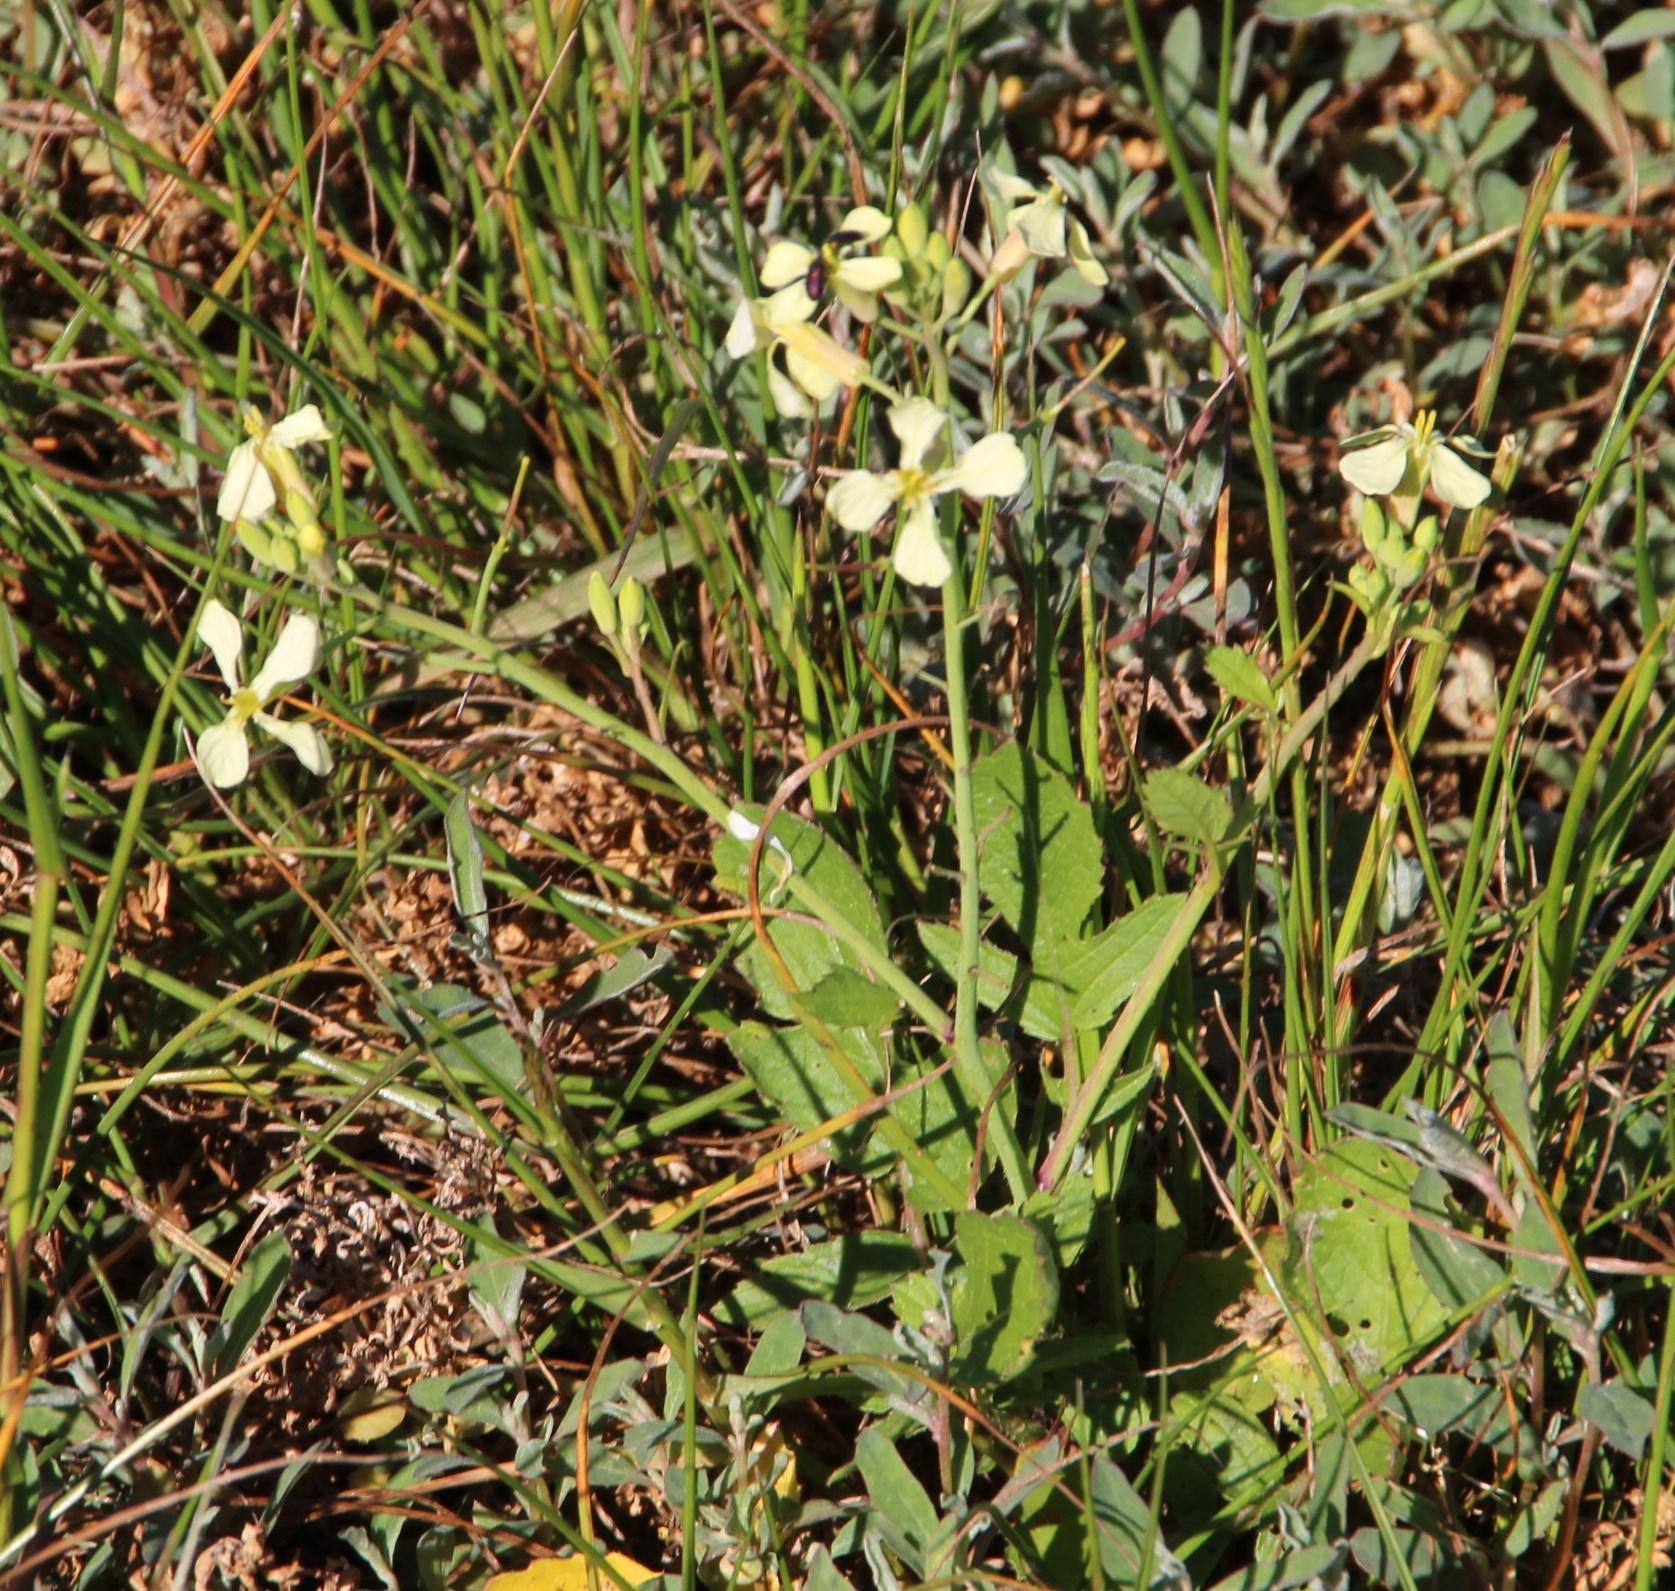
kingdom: Plantae
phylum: Tracheophyta
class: Magnoliopsida
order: Brassicales
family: Brassicaceae
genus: Raphanus
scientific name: Raphanus raphanistrum
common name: Wild radish
